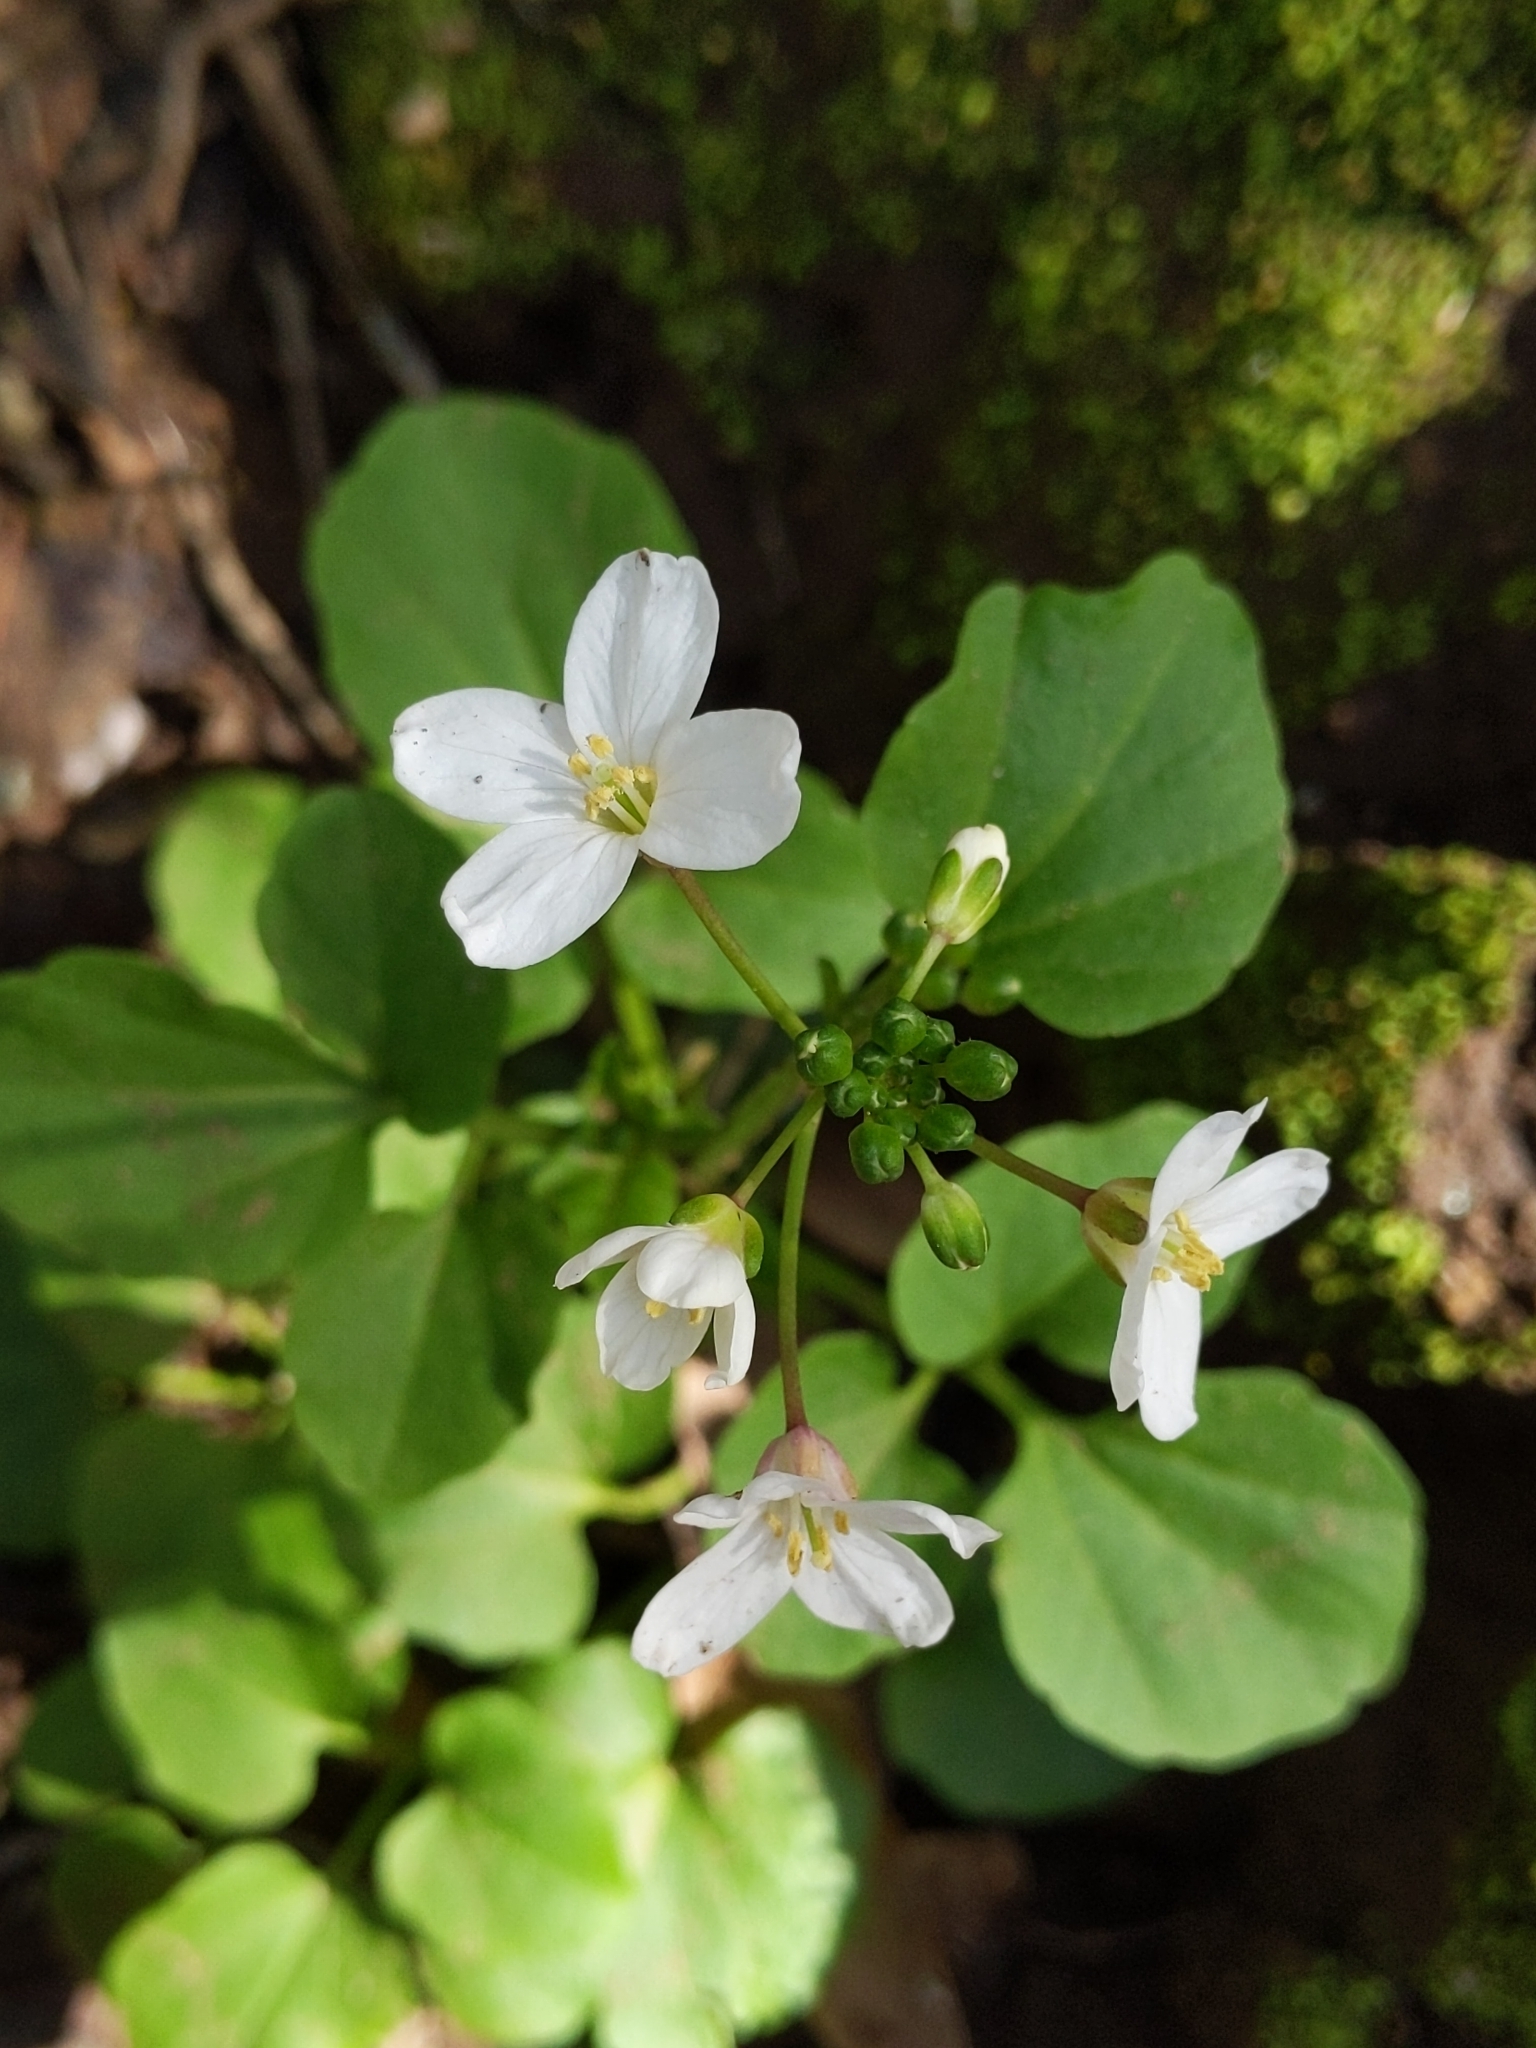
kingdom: Plantae
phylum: Tracheophyta
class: Magnoliopsida
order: Brassicales
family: Brassicaceae
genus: Cardamine
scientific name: Cardamine californica
